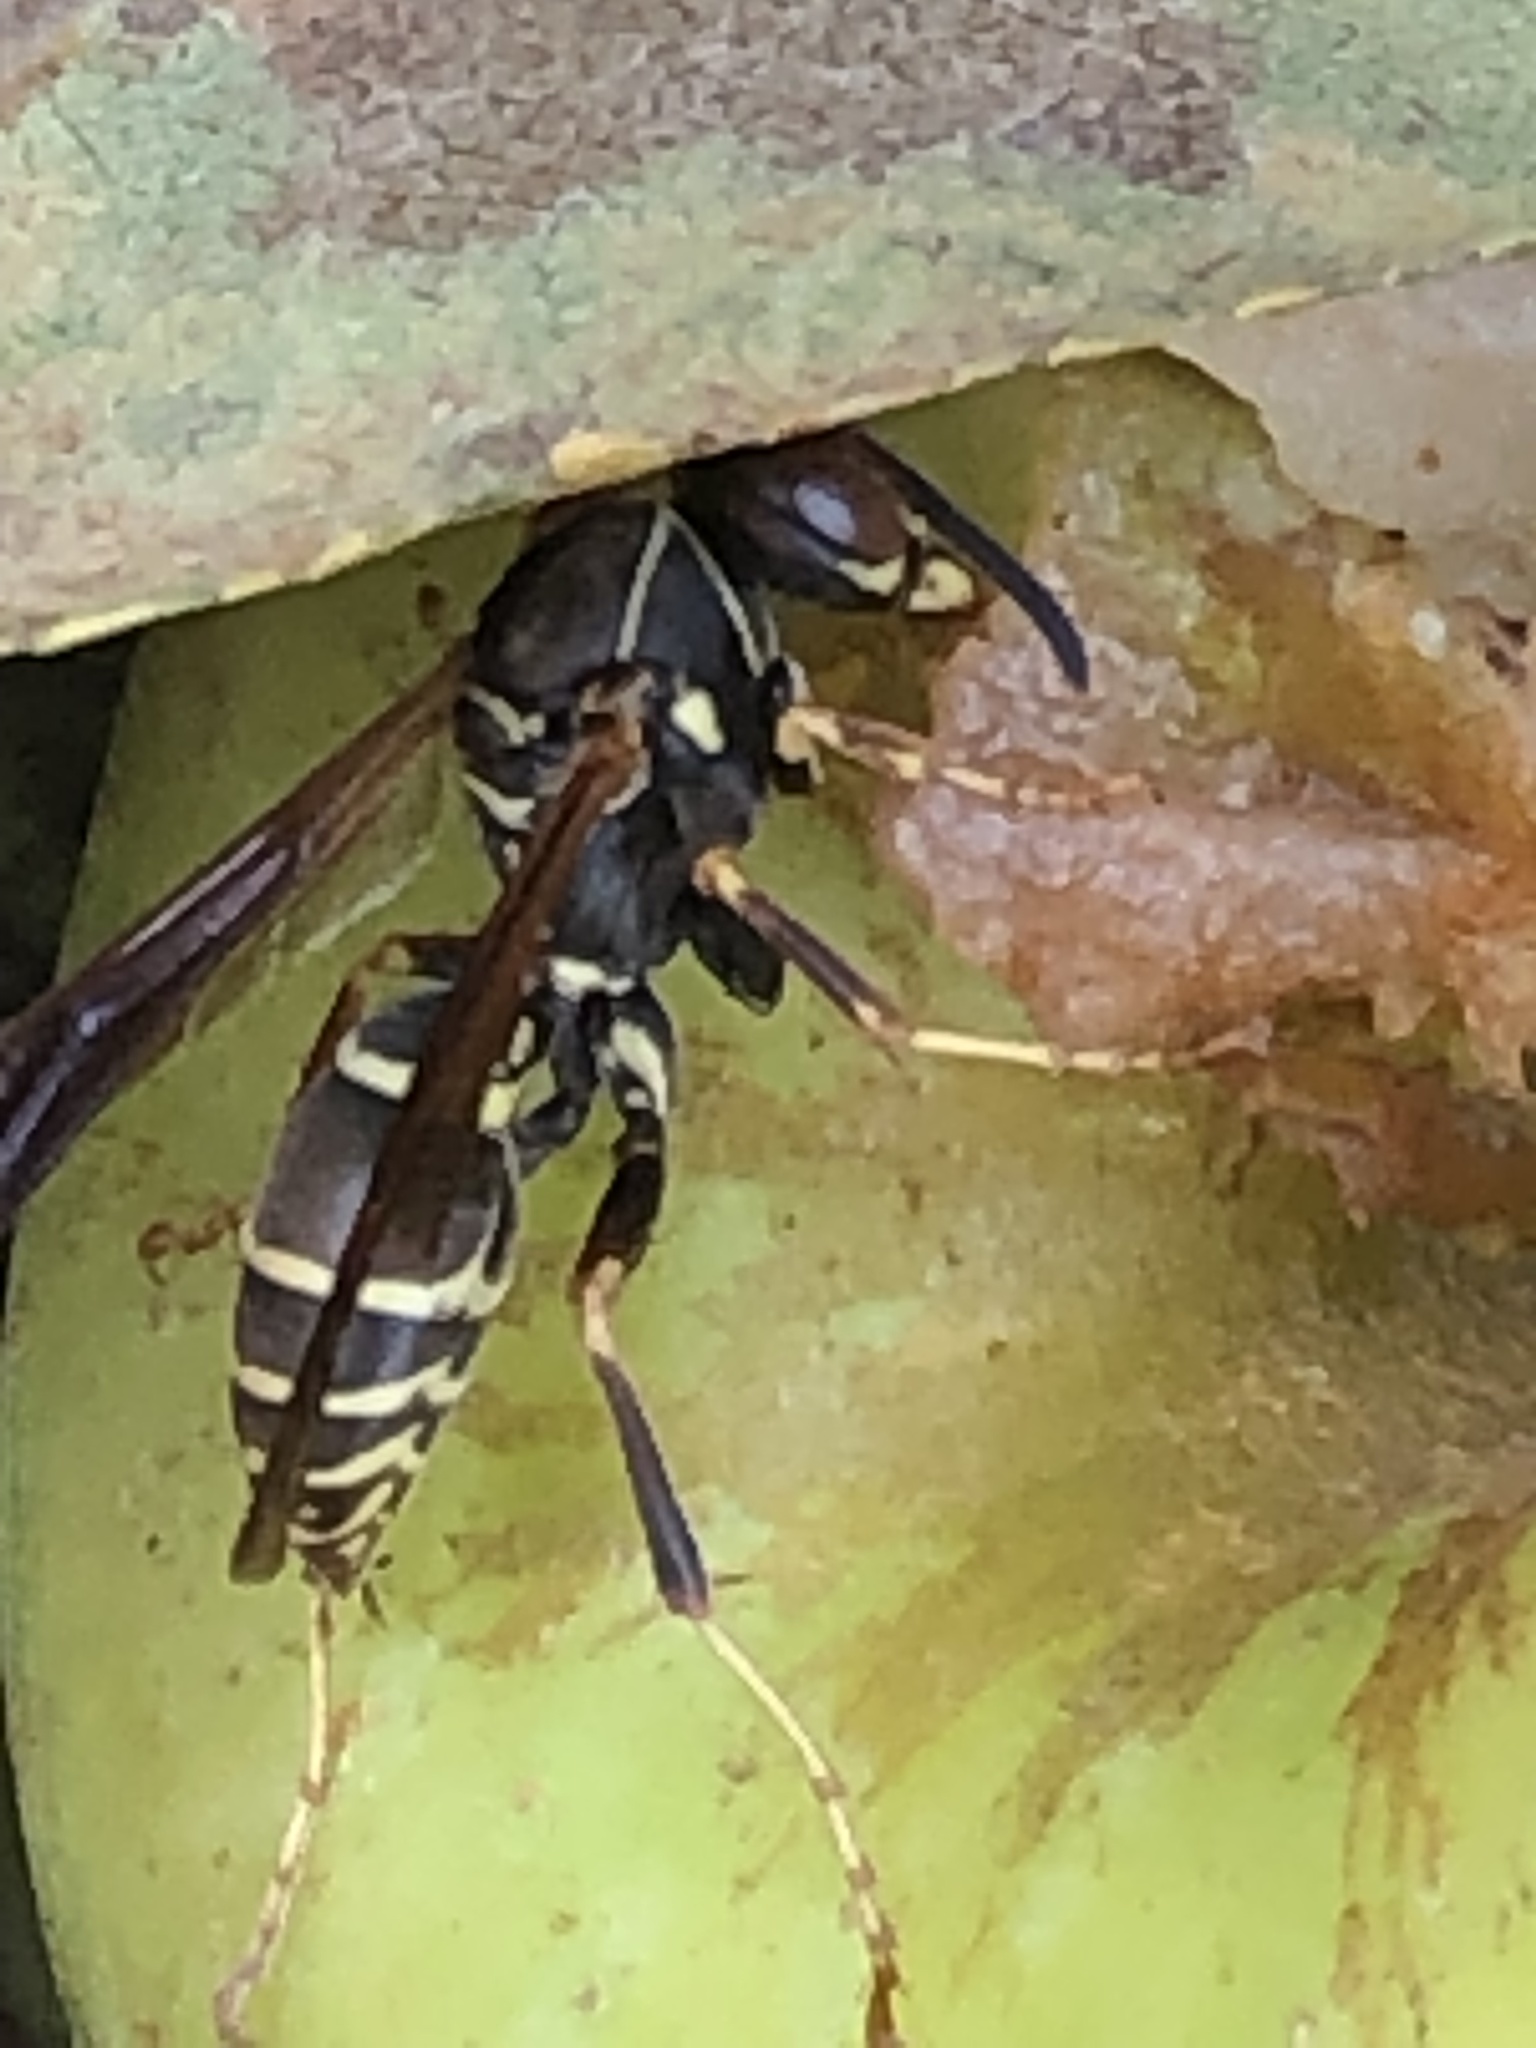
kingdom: Animalia
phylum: Arthropoda
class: Insecta
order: Hymenoptera
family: Eumenidae
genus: Polistes
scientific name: Polistes fuscatus
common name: Dark paper wasp
